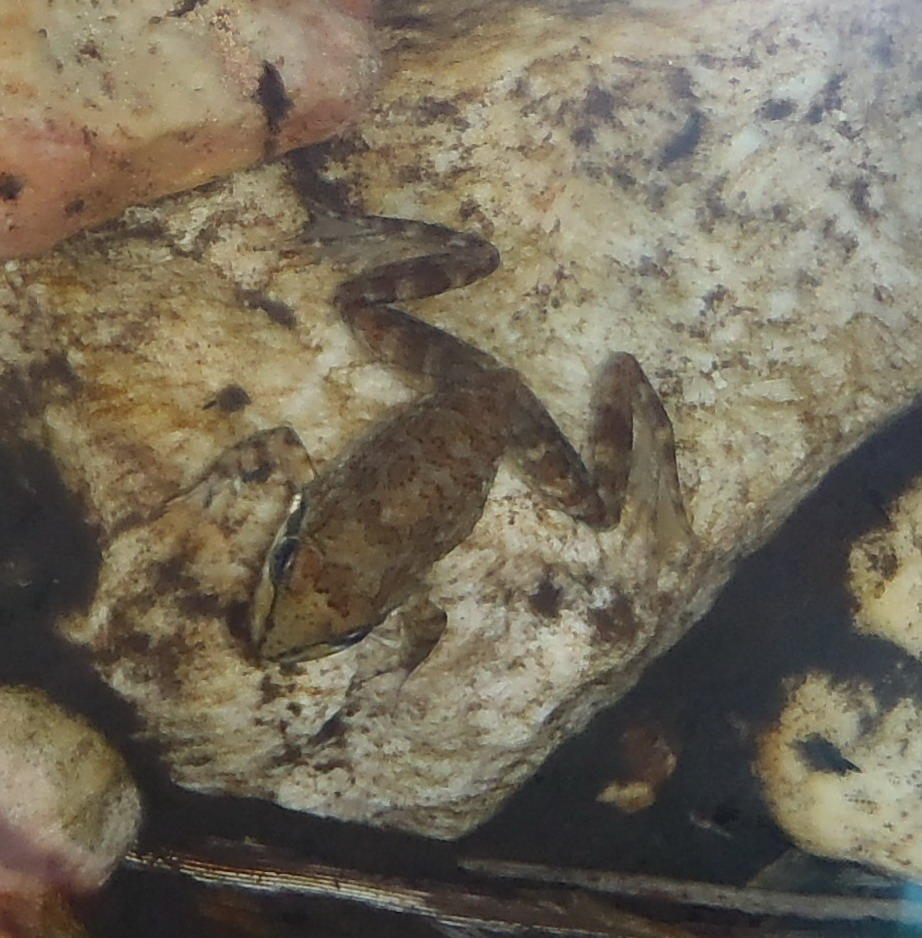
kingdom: Animalia
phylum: Chordata
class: Amphibia
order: Anura
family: Pyxicephalidae
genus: Amietia
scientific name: Amietia fuscigula
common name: Cape rana
